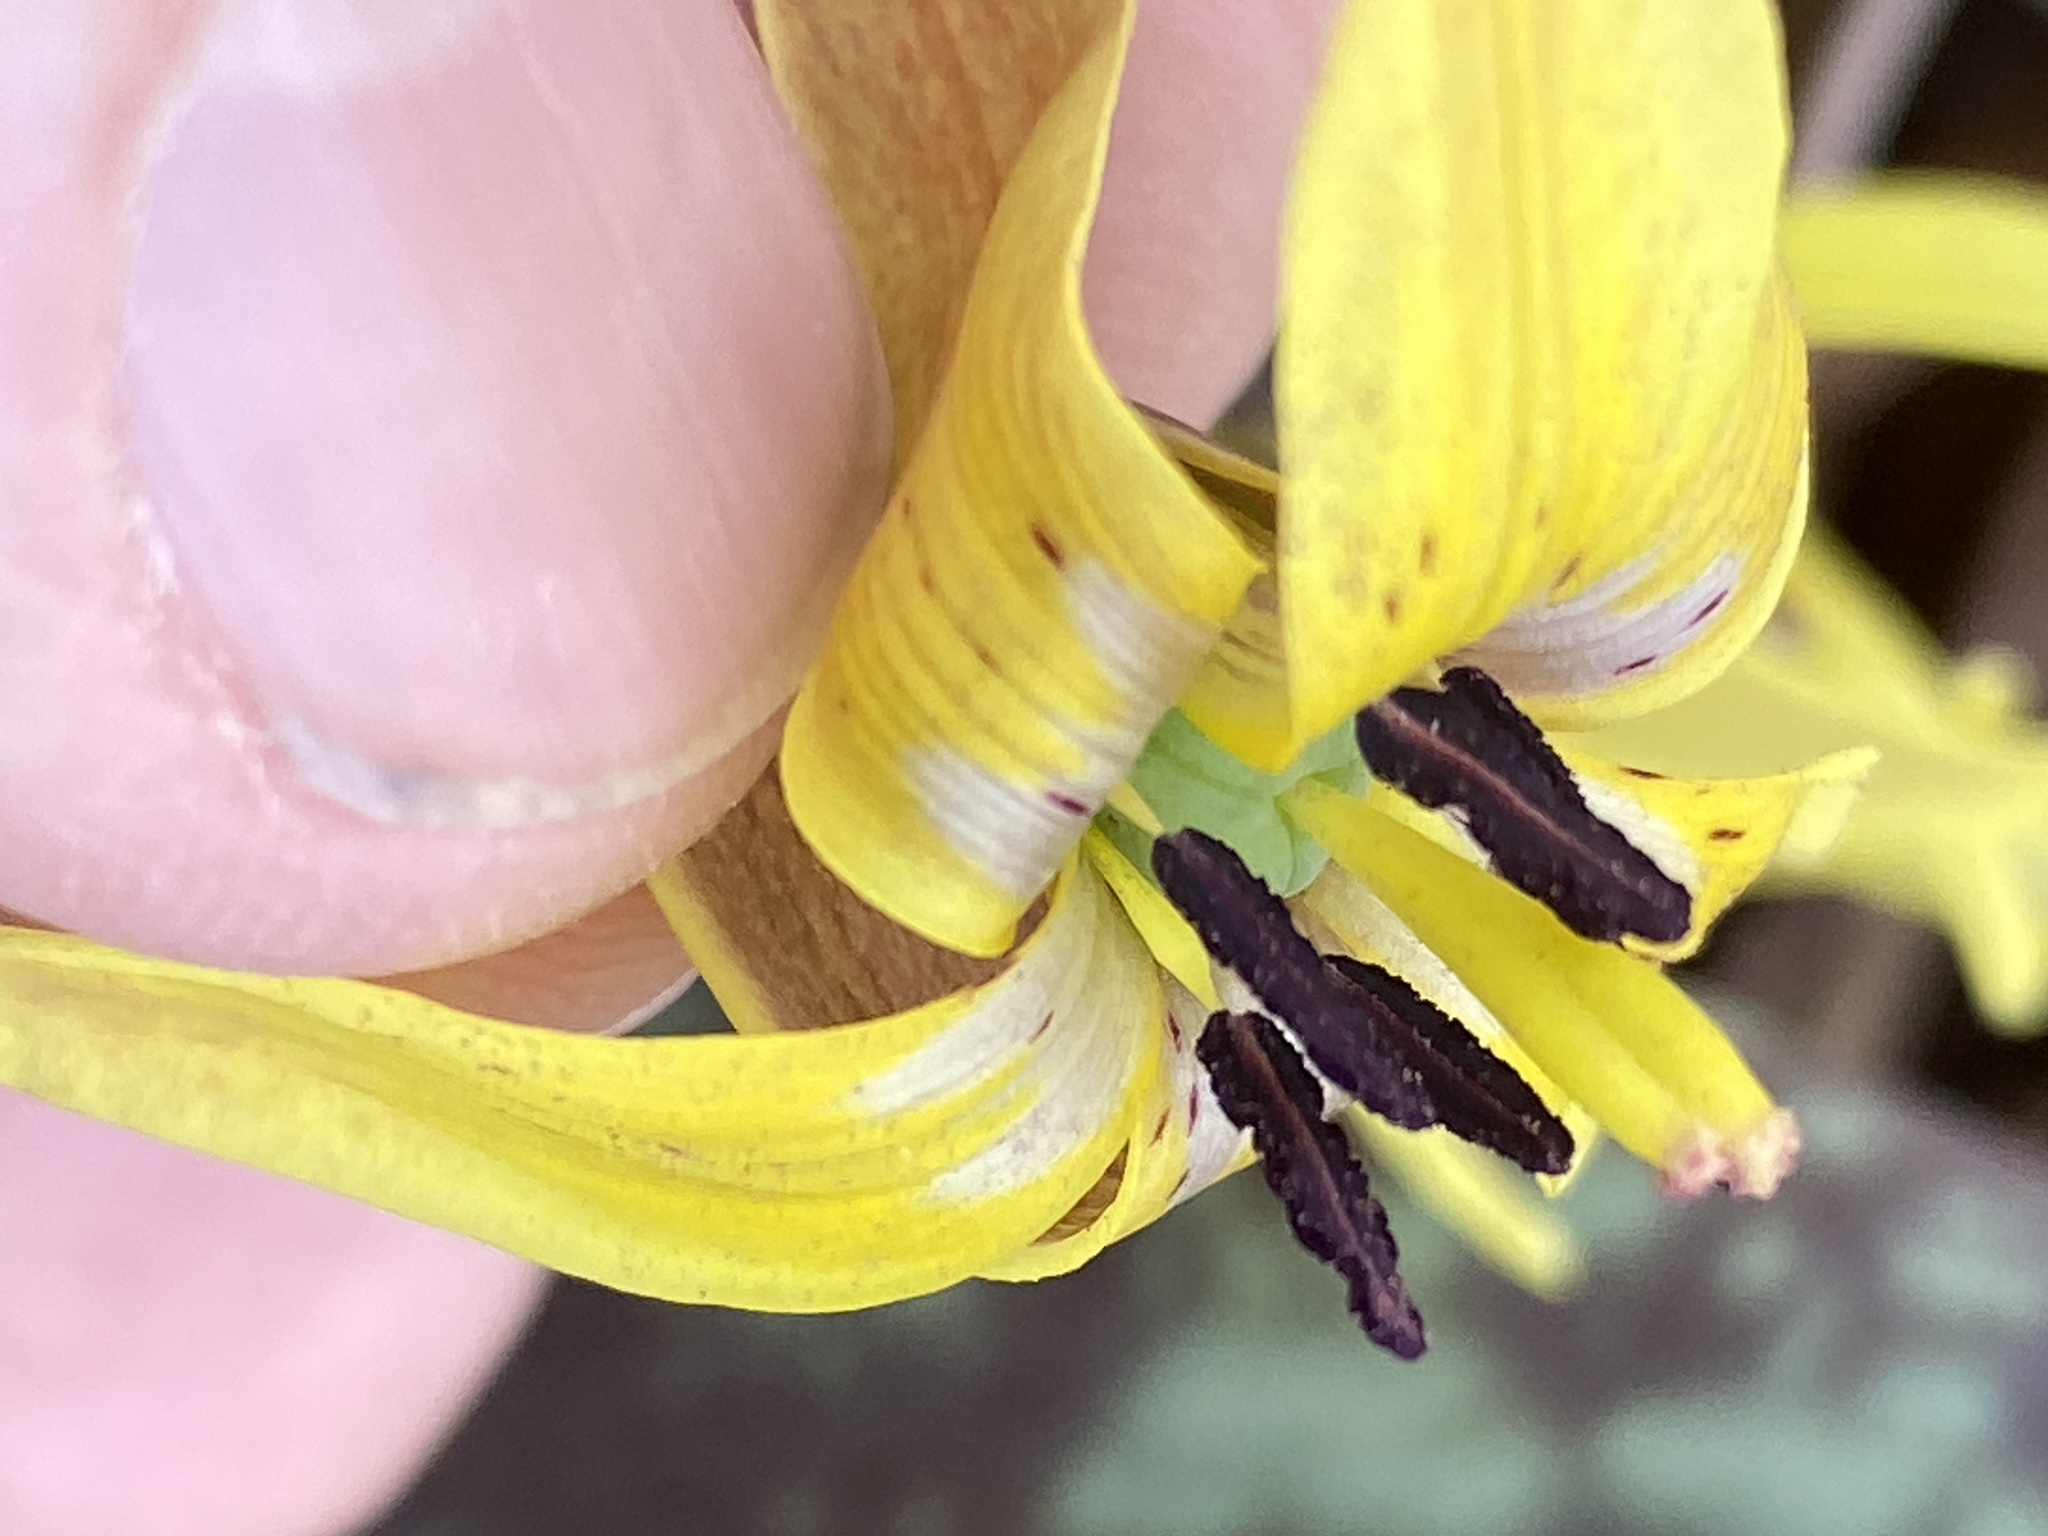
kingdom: Plantae
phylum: Tracheophyta
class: Liliopsida
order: Liliales
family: Liliaceae
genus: Erythronium
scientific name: Erythronium umbilicatum
